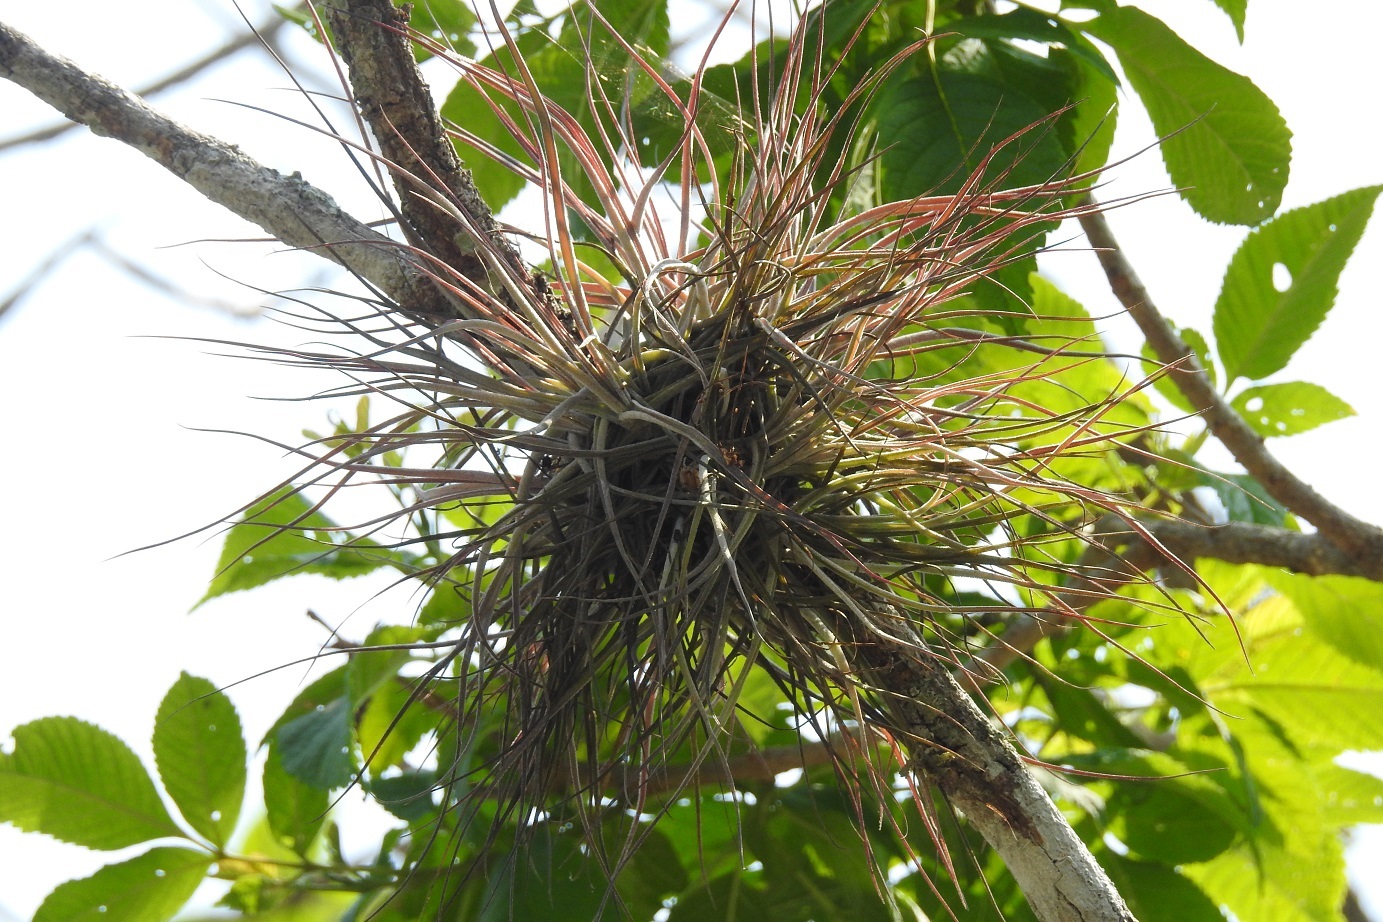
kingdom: Plantae
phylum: Tracheophyta
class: Liliopsida
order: Poales
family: Bromeliaceae
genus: Tillandsia
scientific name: Tillandsia schiedeana
